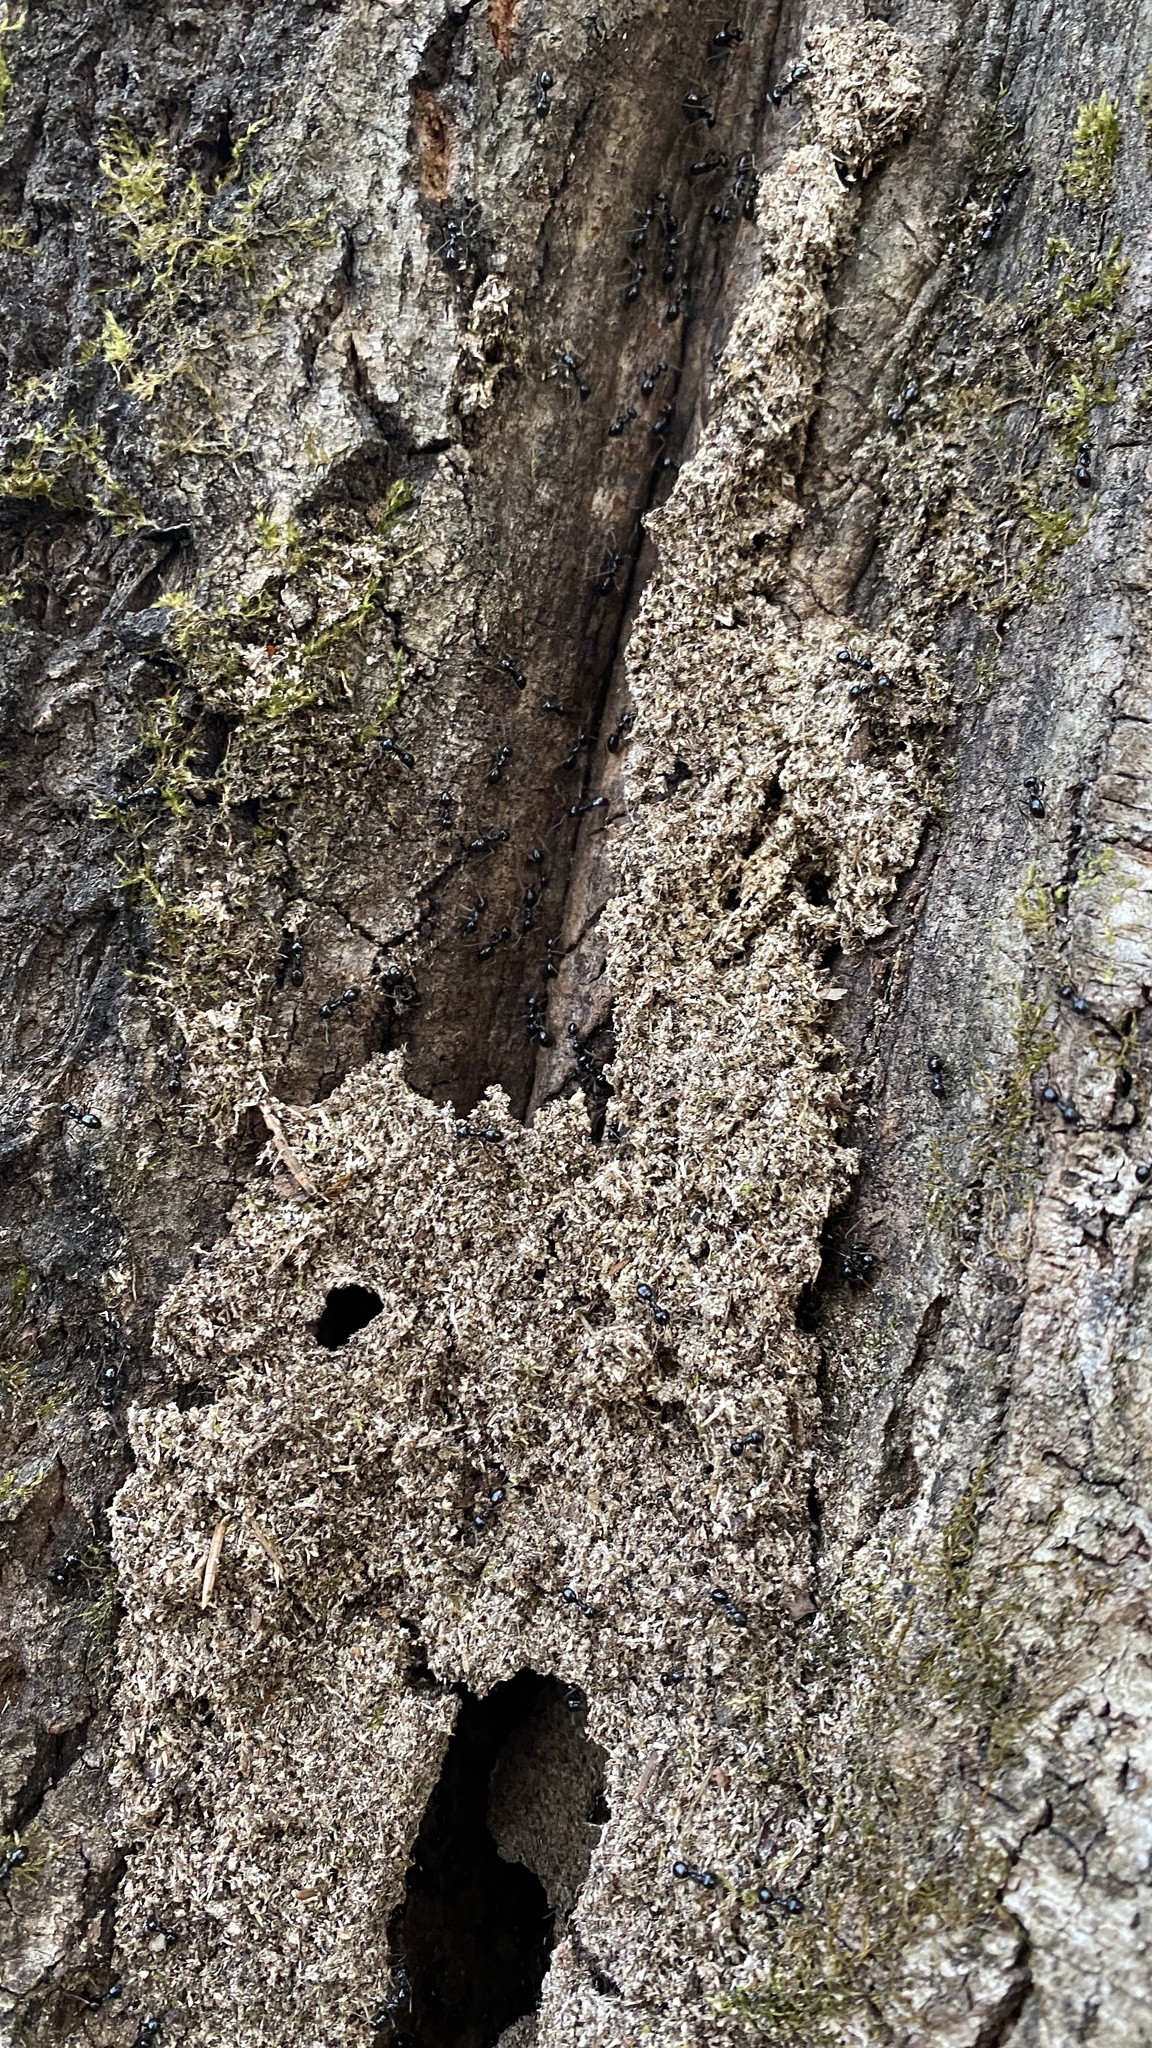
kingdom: Animalia
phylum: Arthropoda
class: Insecta
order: Hymenoptera
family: Formicidae
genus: Lasius
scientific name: Lasius fuliginosus
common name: Jet ant
